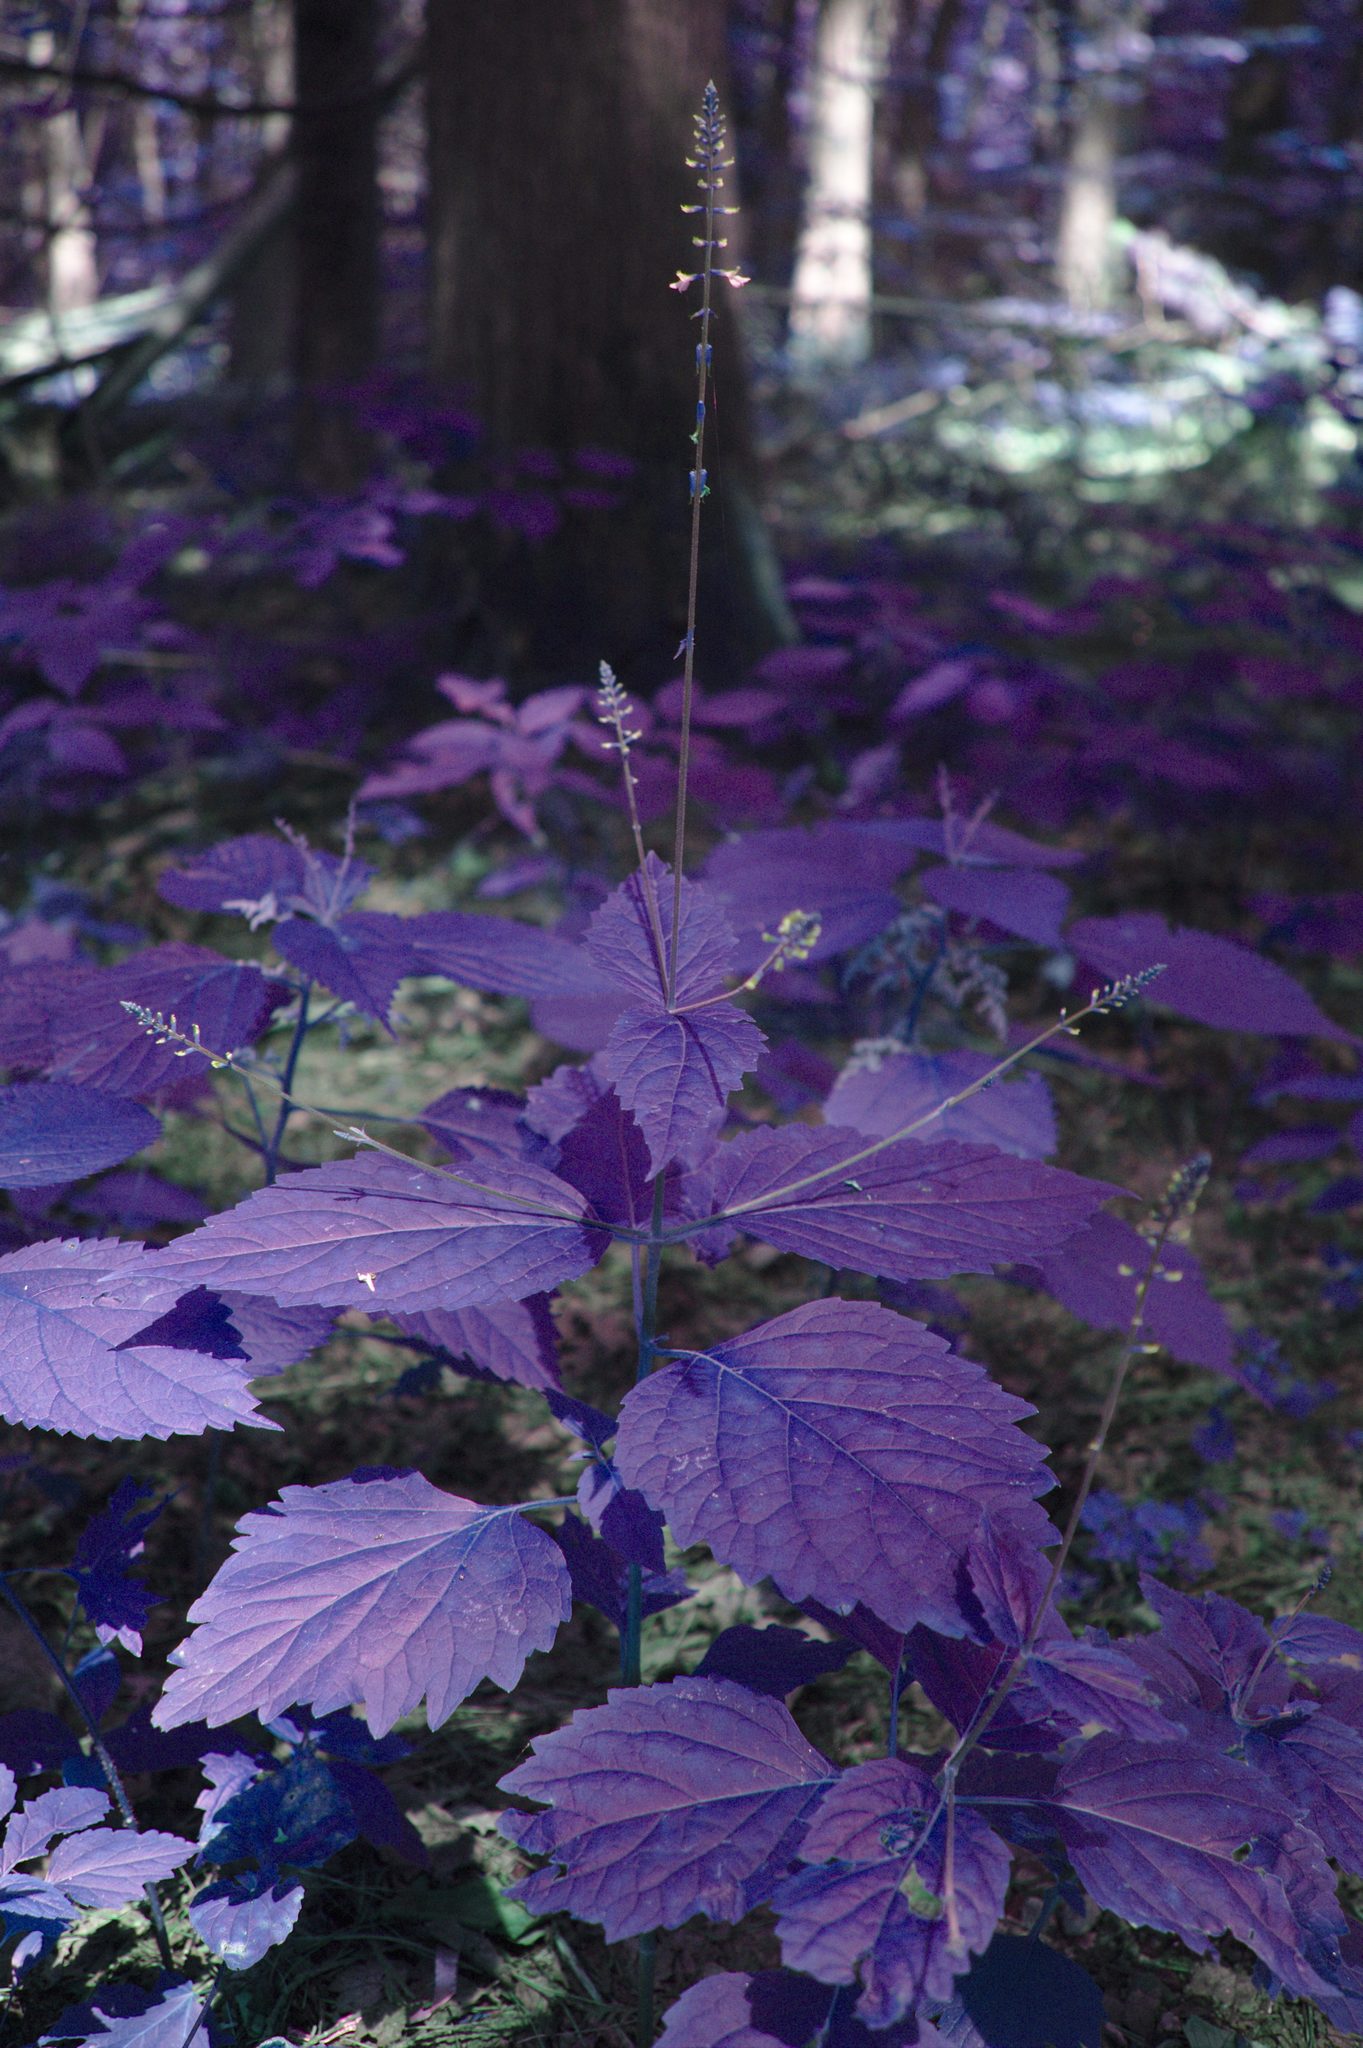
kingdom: Plantae
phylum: Tracheophyta
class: Magnoliopsida
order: Lamiales
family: Phrymaceae
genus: Phryma
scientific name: Phryma leptostachya
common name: American lopseed
